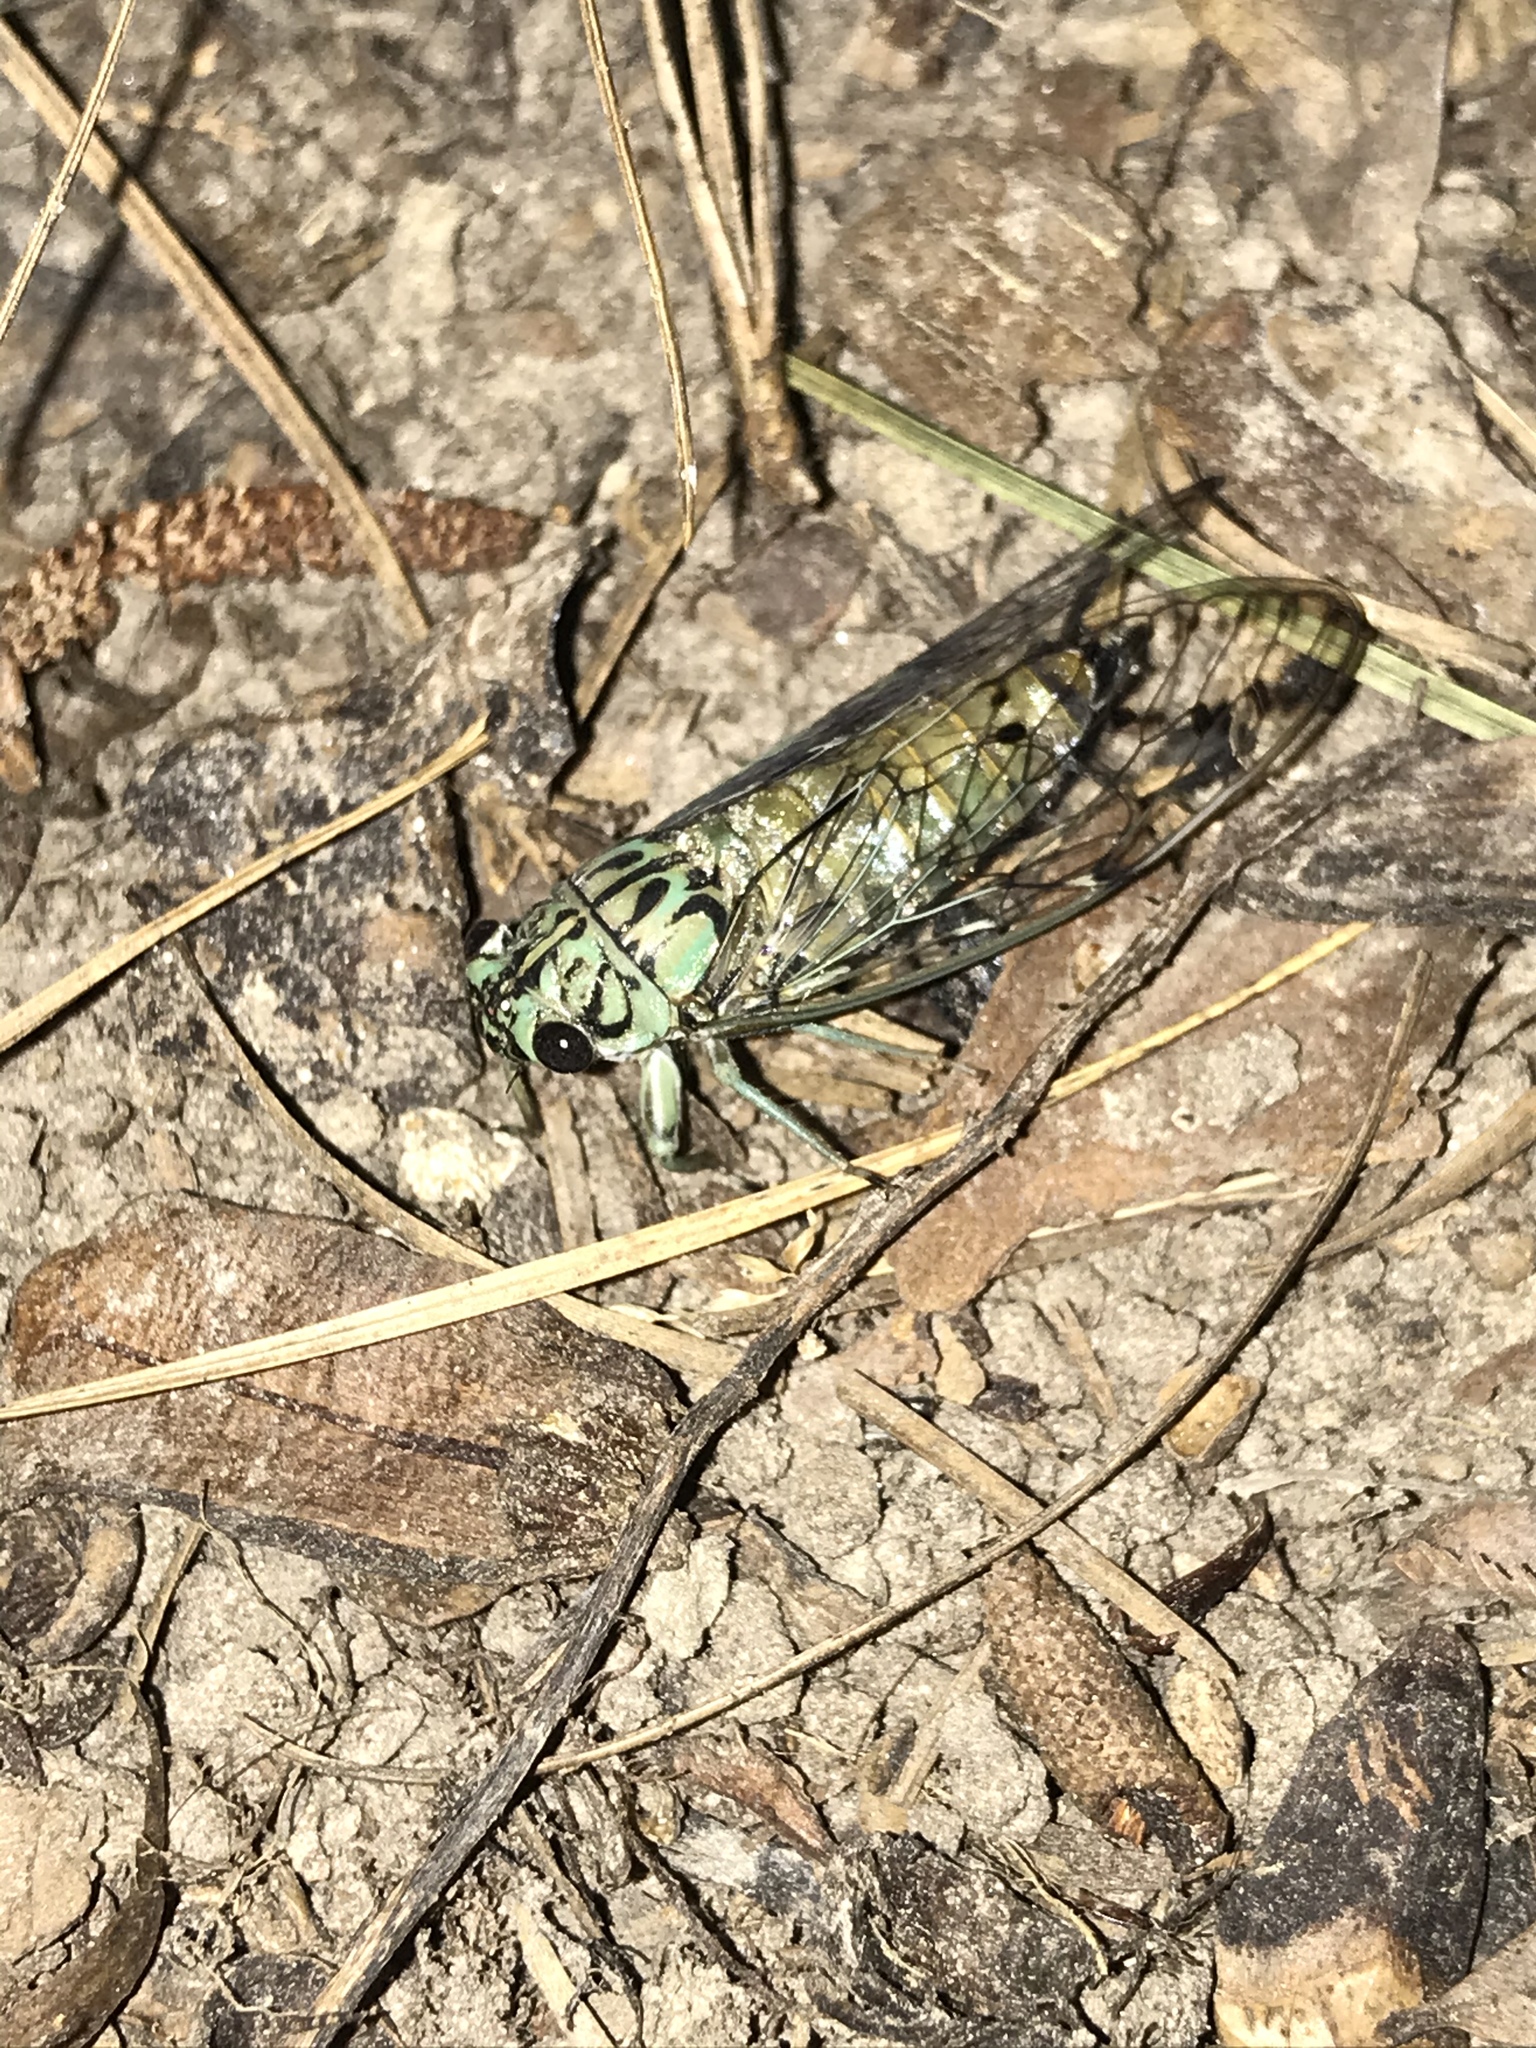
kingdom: Animalia
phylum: Arthropoda
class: Insecta
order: Hemiptera
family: Cicadidae
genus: Neocicada
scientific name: Neocicada hieroglyphica
